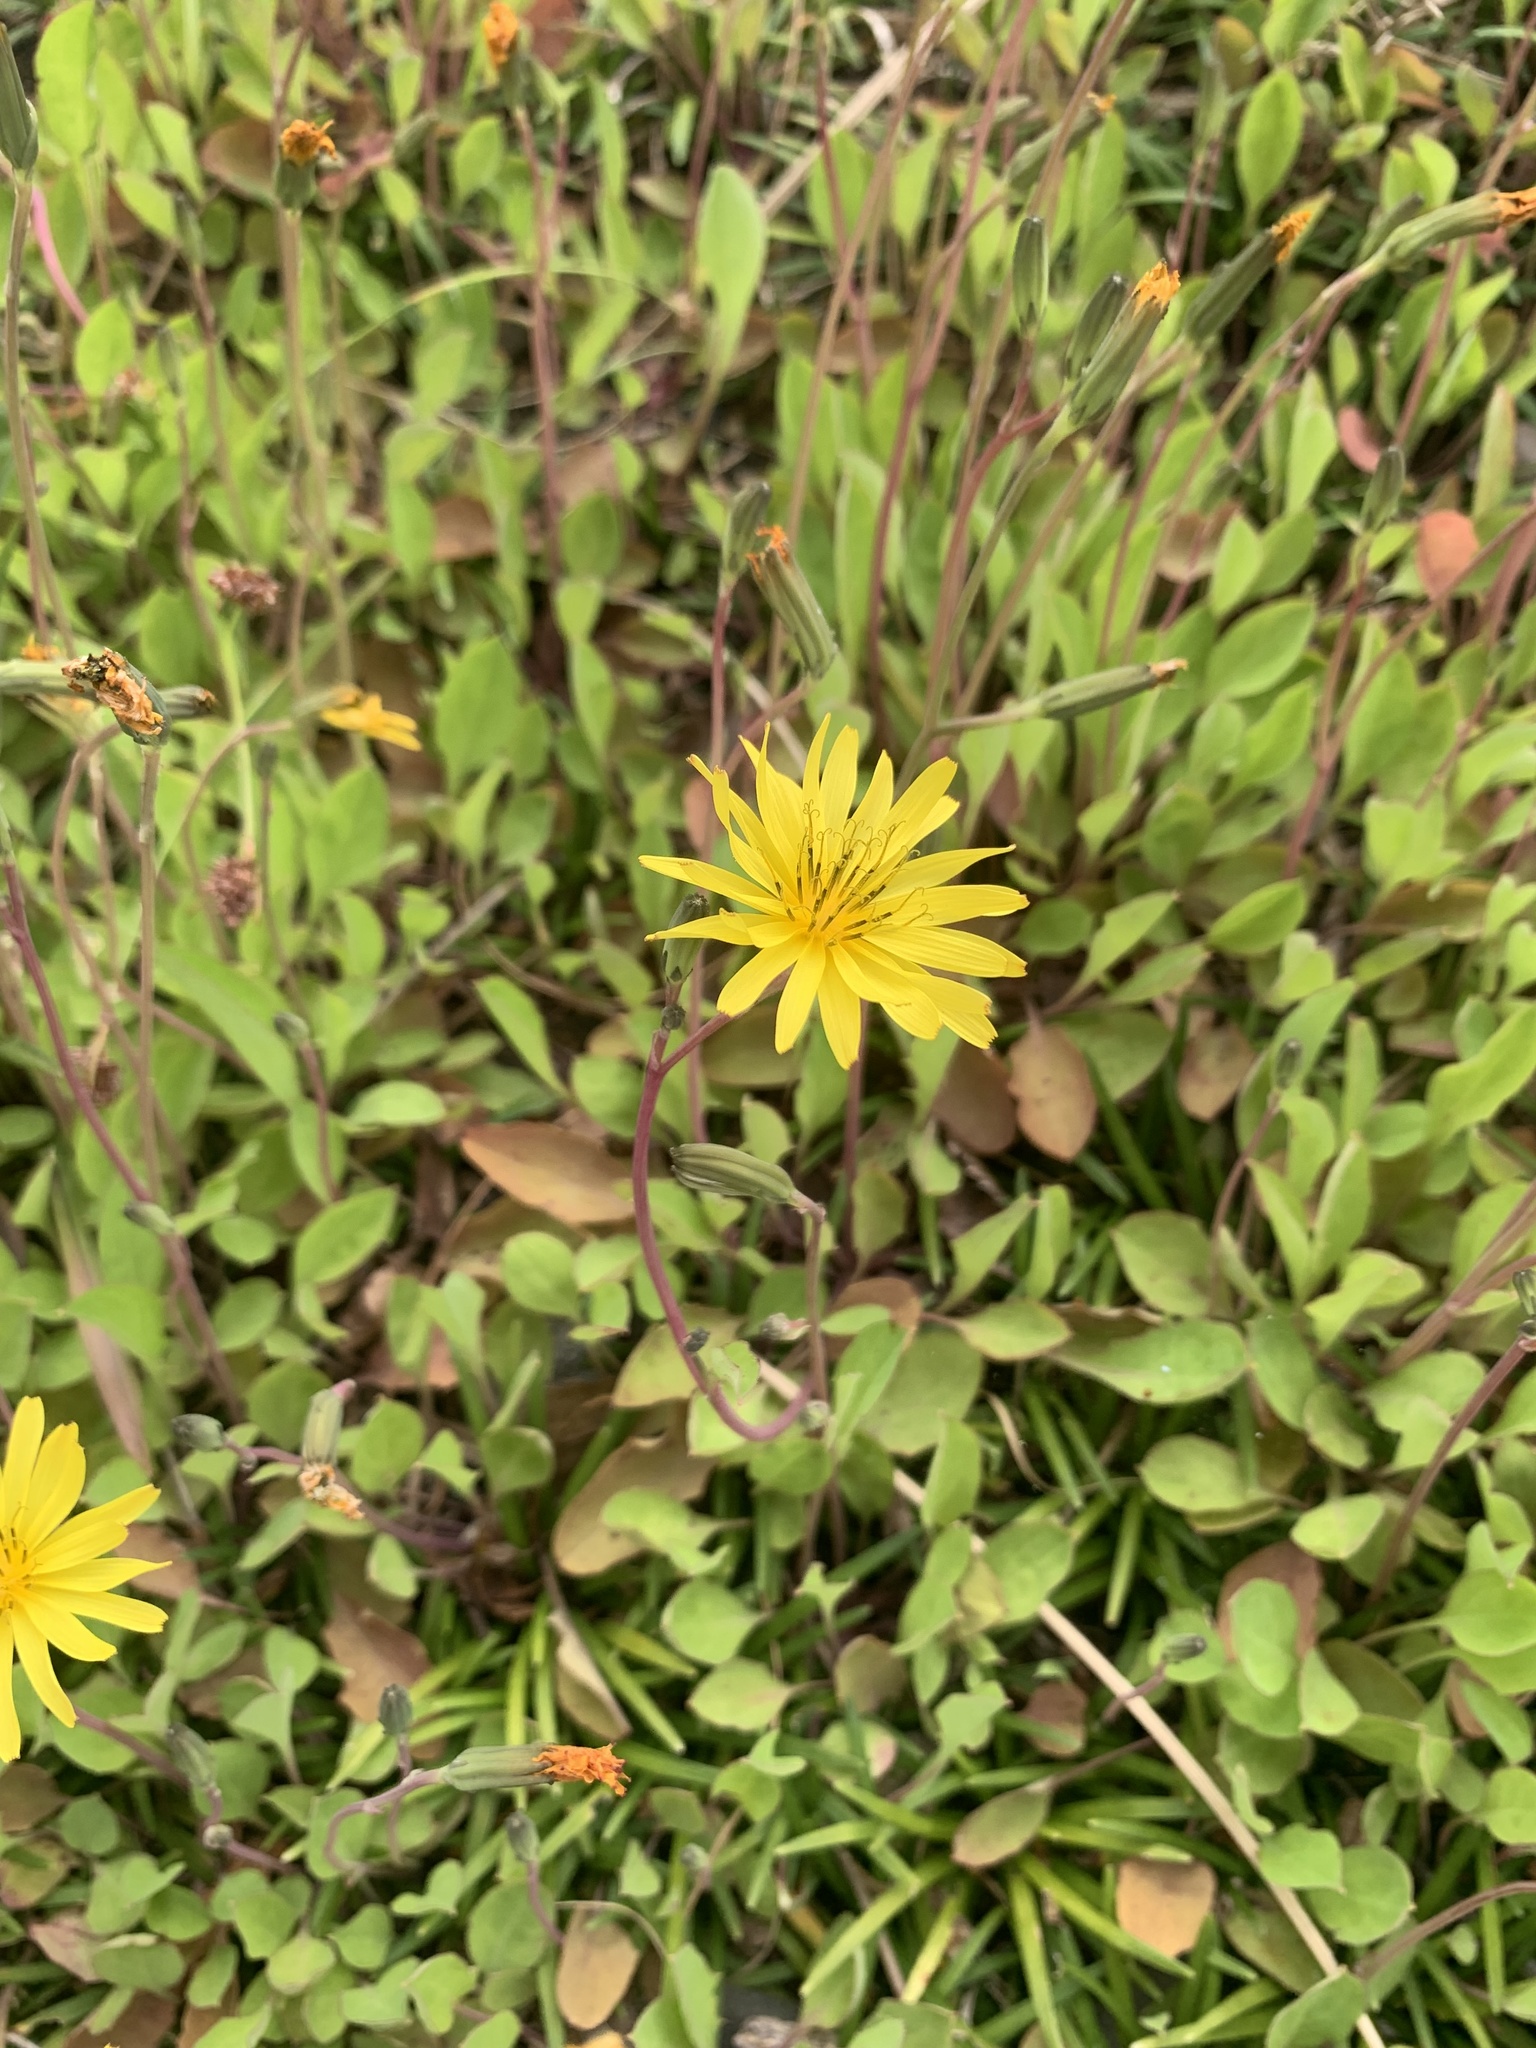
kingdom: Plantae
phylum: Tracheophyta
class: Magnoliopsida
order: Asterales
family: Asteraceae
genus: Ixeris
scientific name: Ixeris stolonifera
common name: Creeping lettuce
